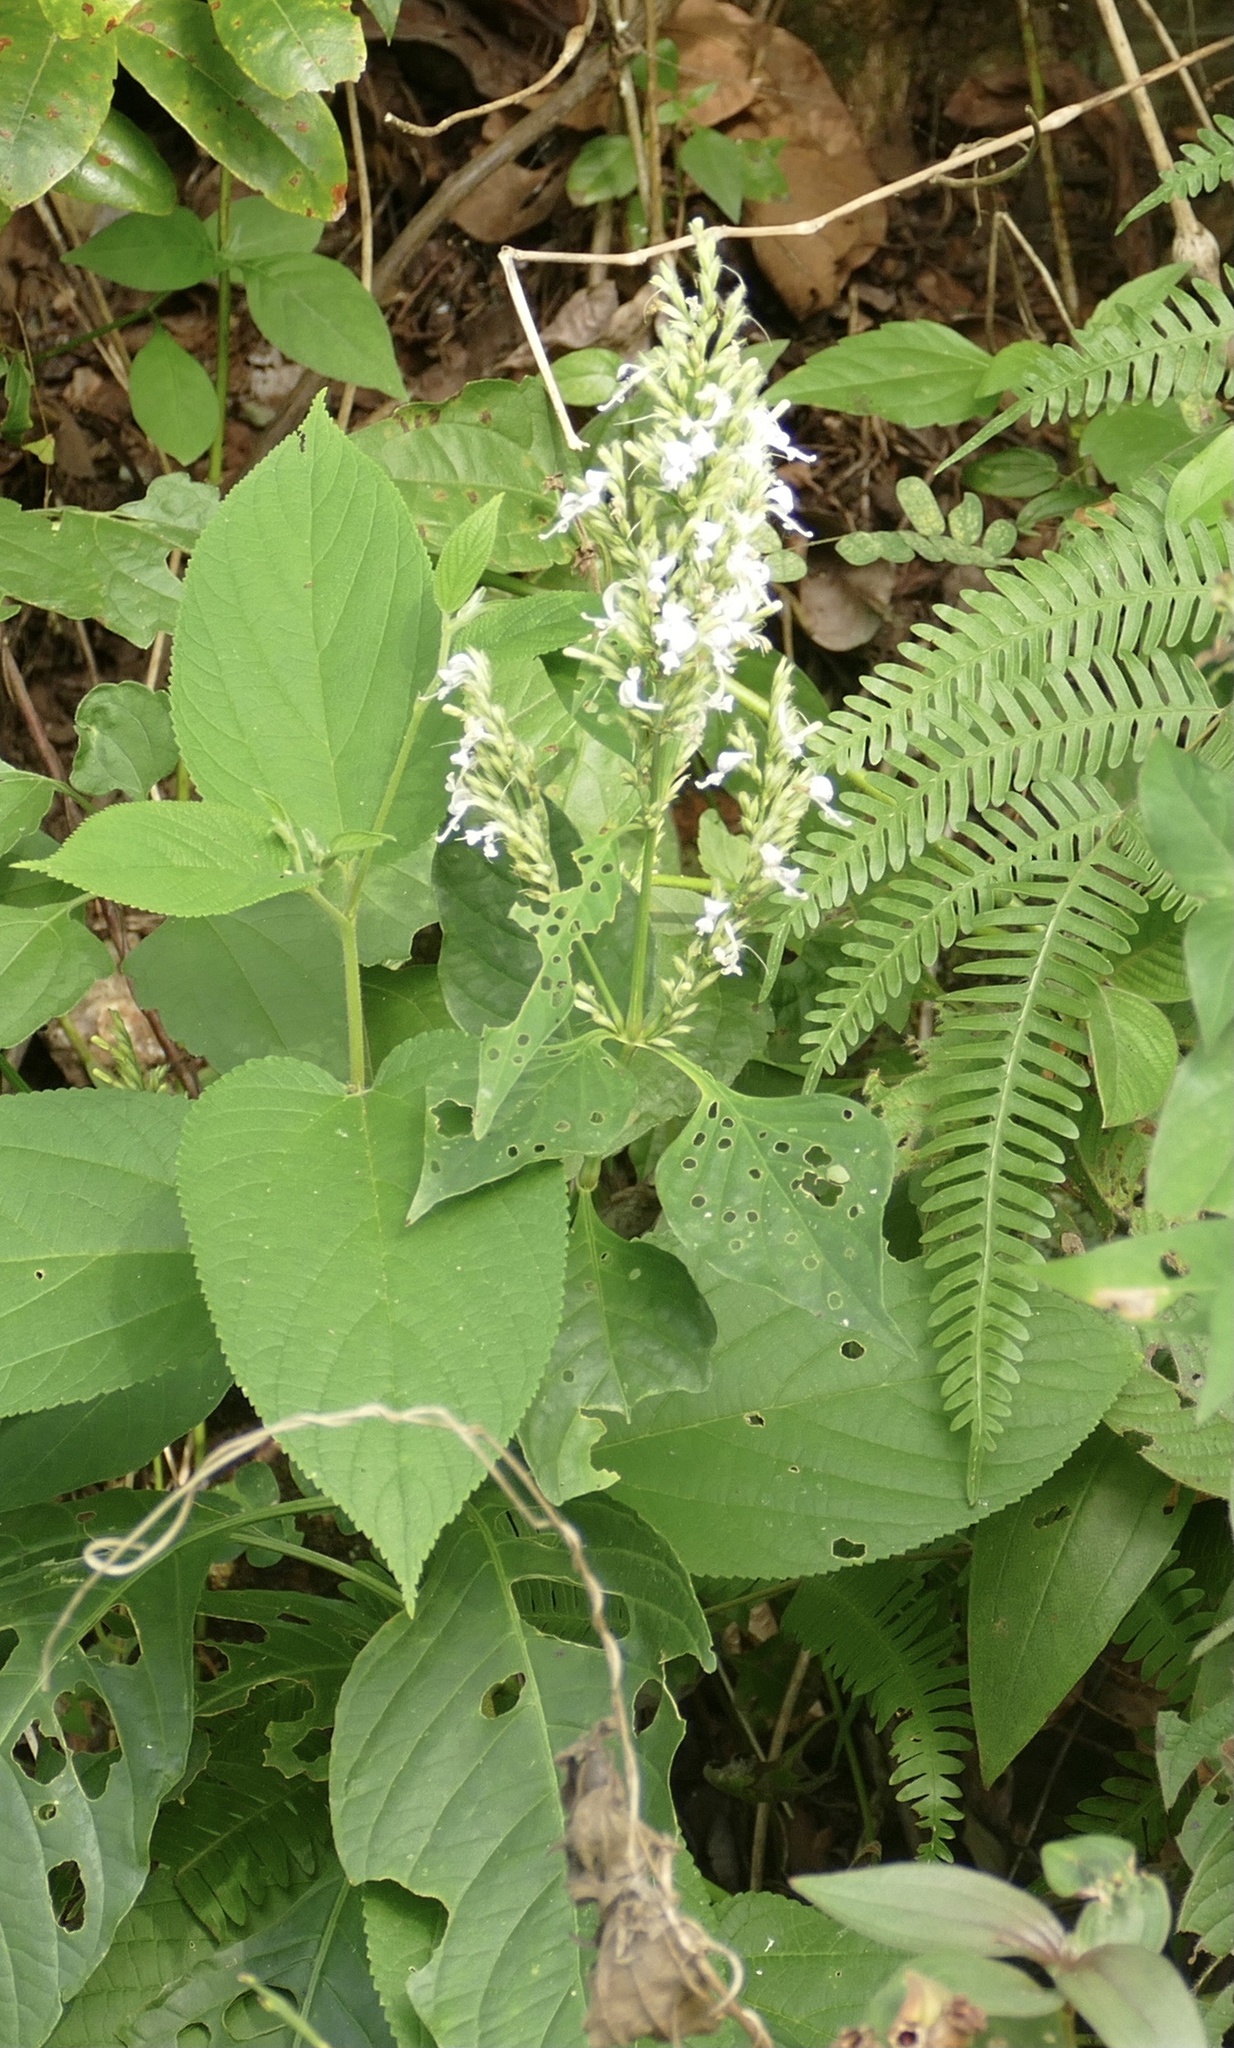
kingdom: Plantae
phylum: Tracheophyta
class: Magnoliopsida
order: Lamiales
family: Acanthaceae
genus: Hypoestes
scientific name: Hypoestes forskaolii
